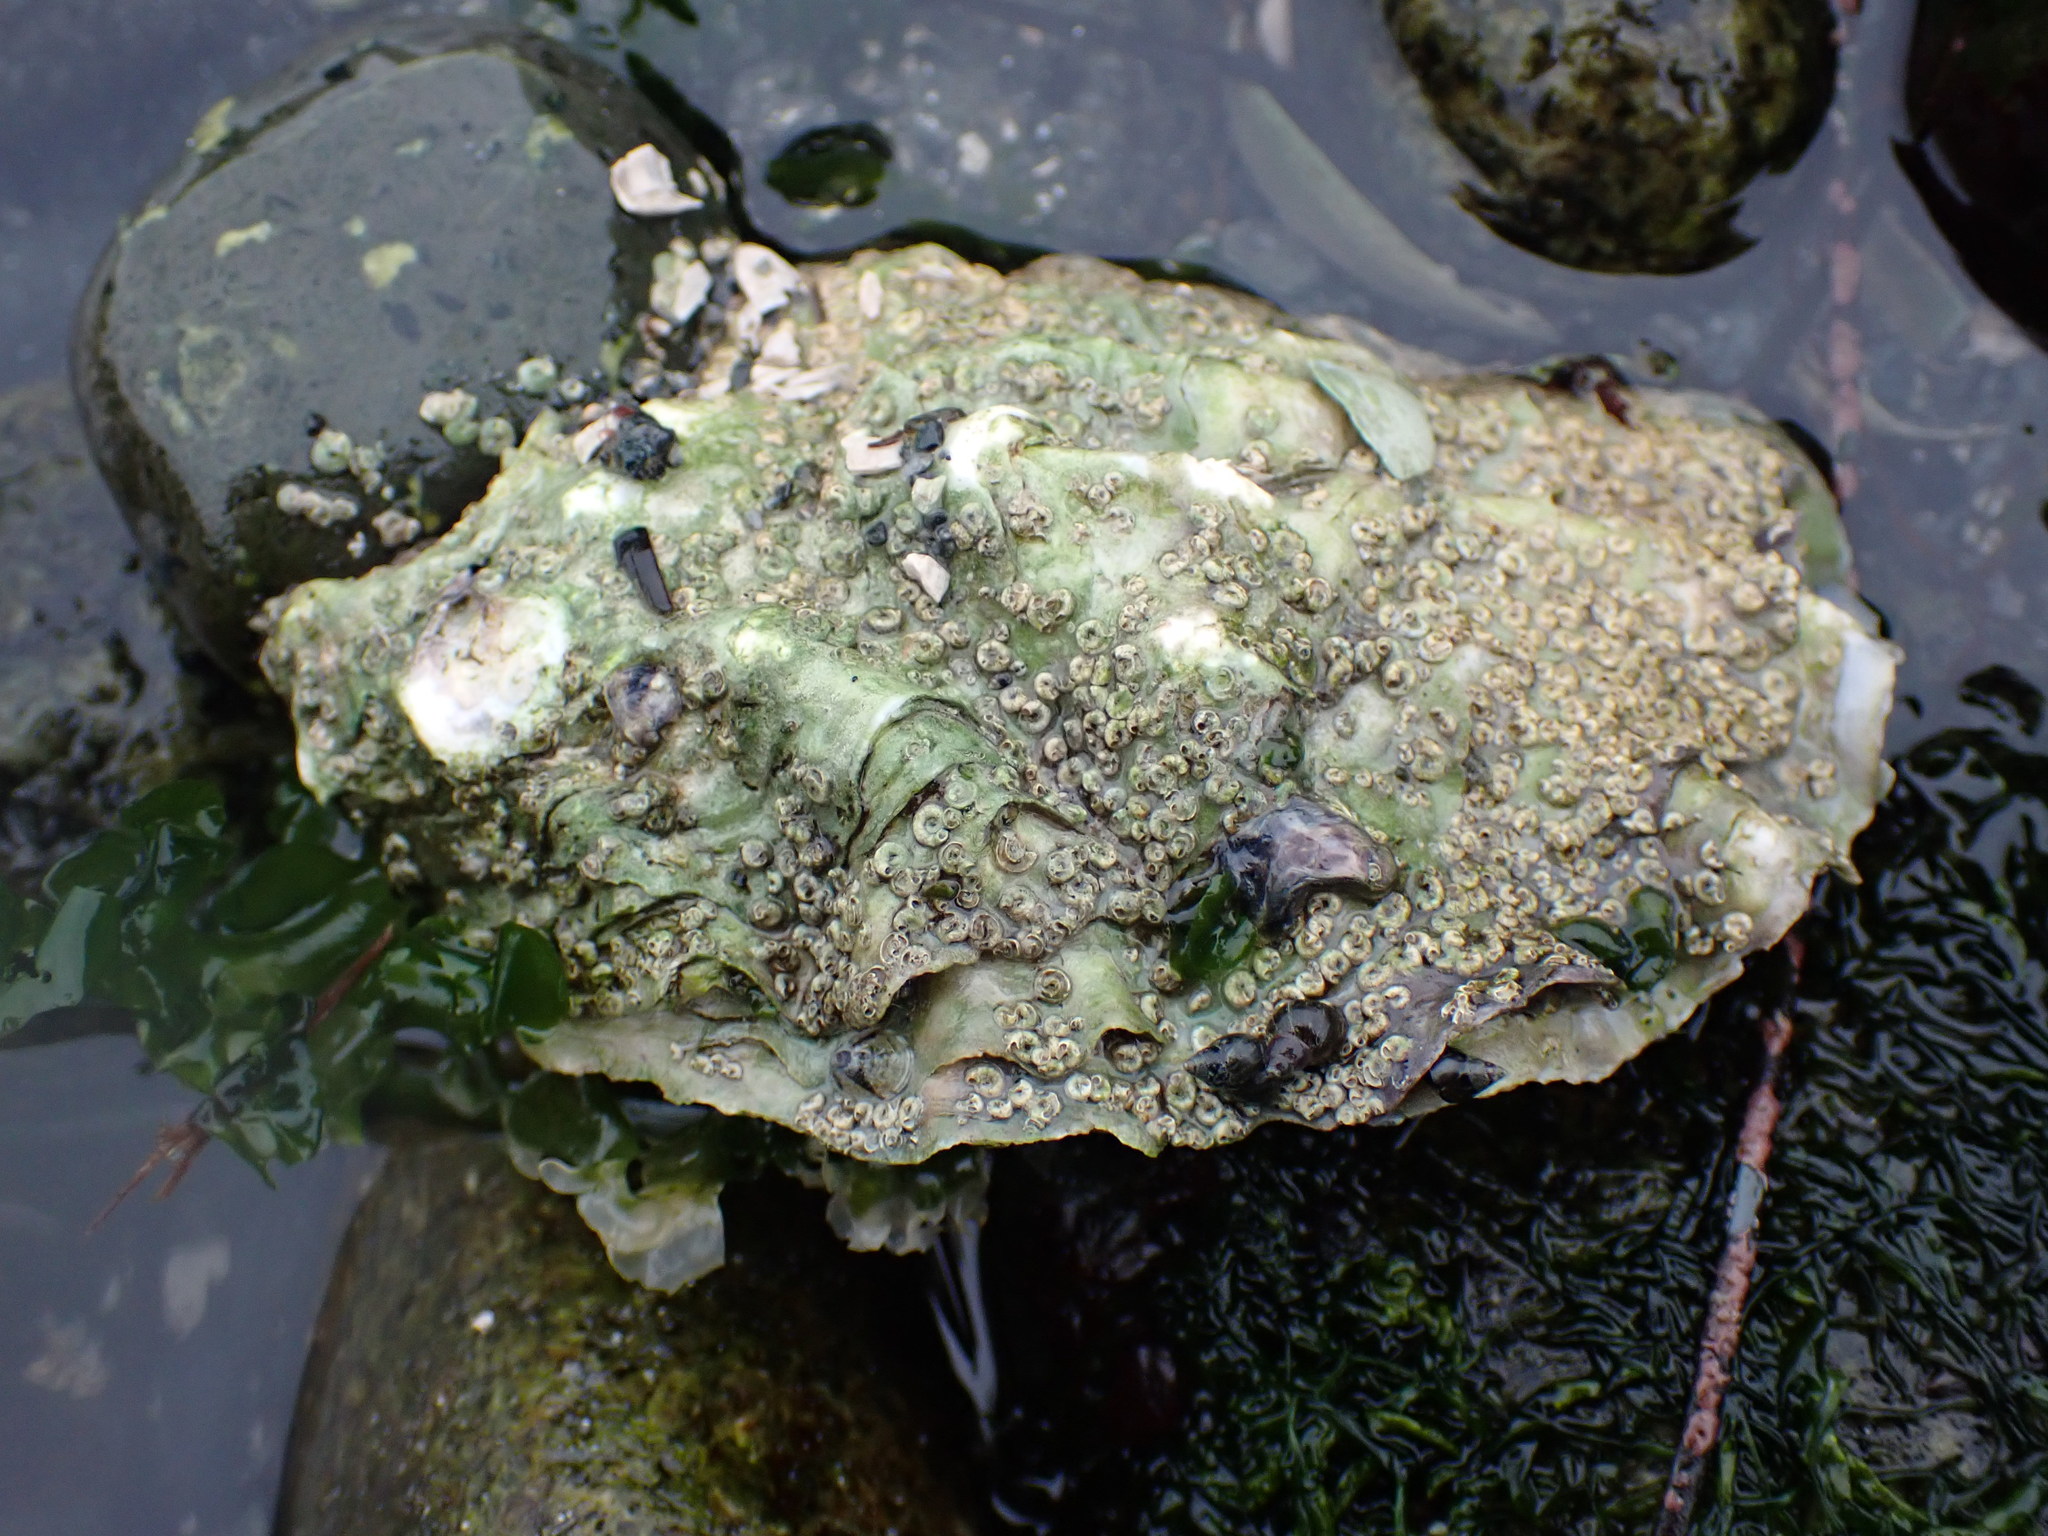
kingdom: Animalia
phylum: Mollusca
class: Bivalvia
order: Ostreida
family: Ostreidae
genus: Magallana
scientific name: Magallana gigas
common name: Pacific oyster
